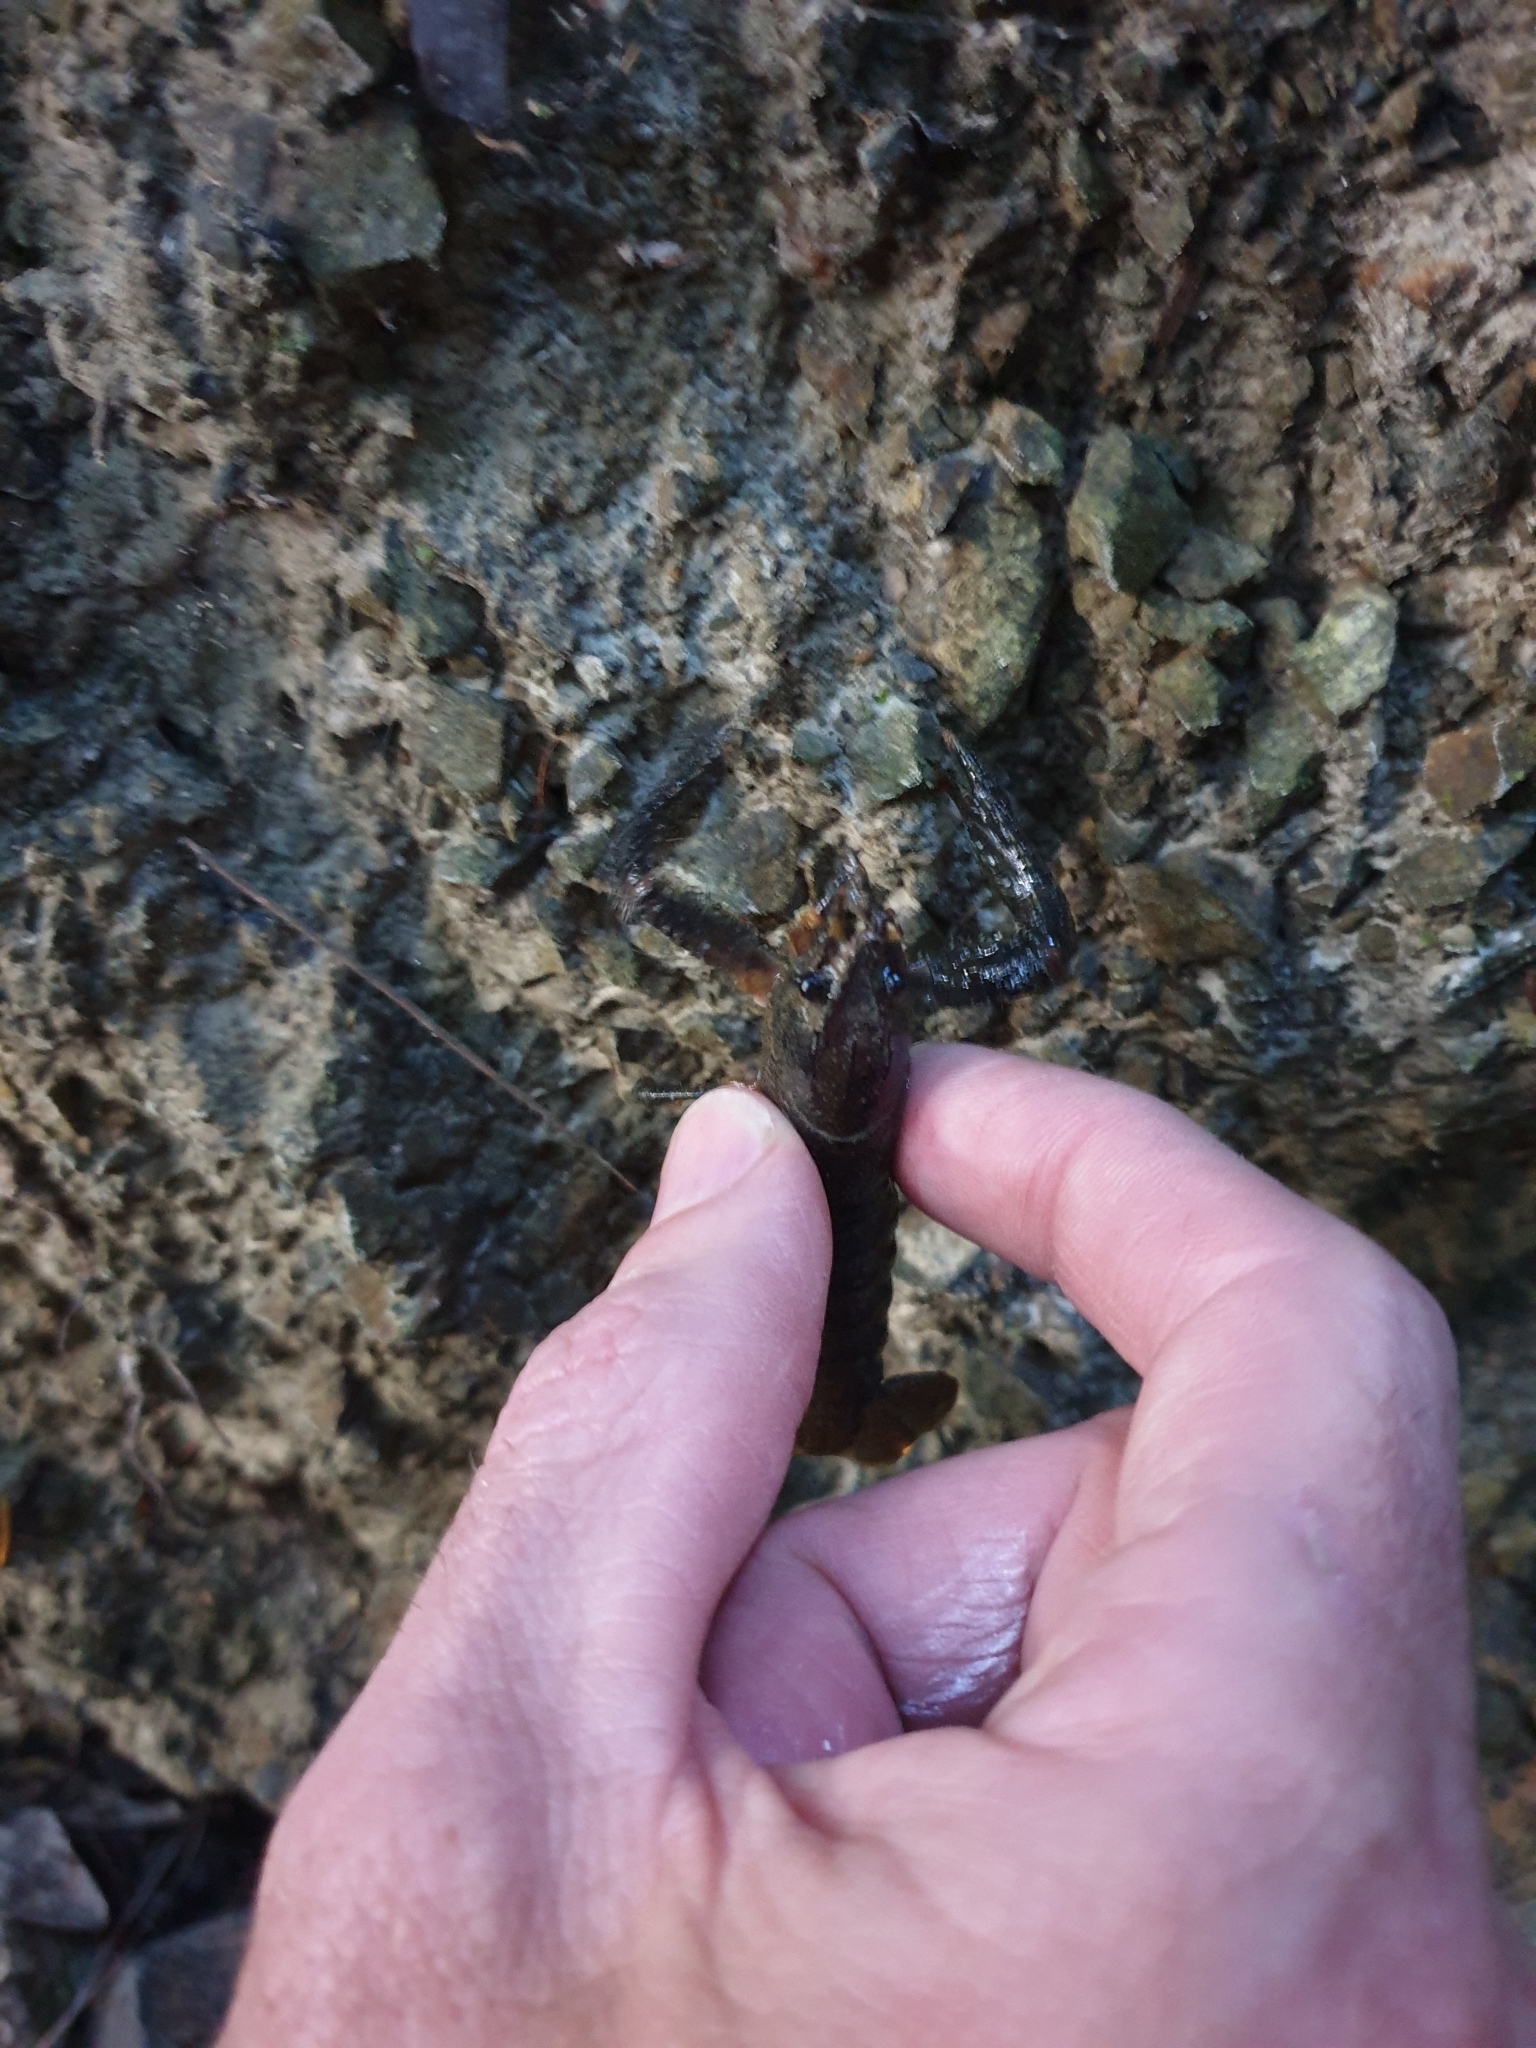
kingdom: Animalia
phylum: Arthropoda
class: Malacostraca
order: Decapoda
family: Parastacidae
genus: Paranephrops
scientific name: Paranephrops planifrons
